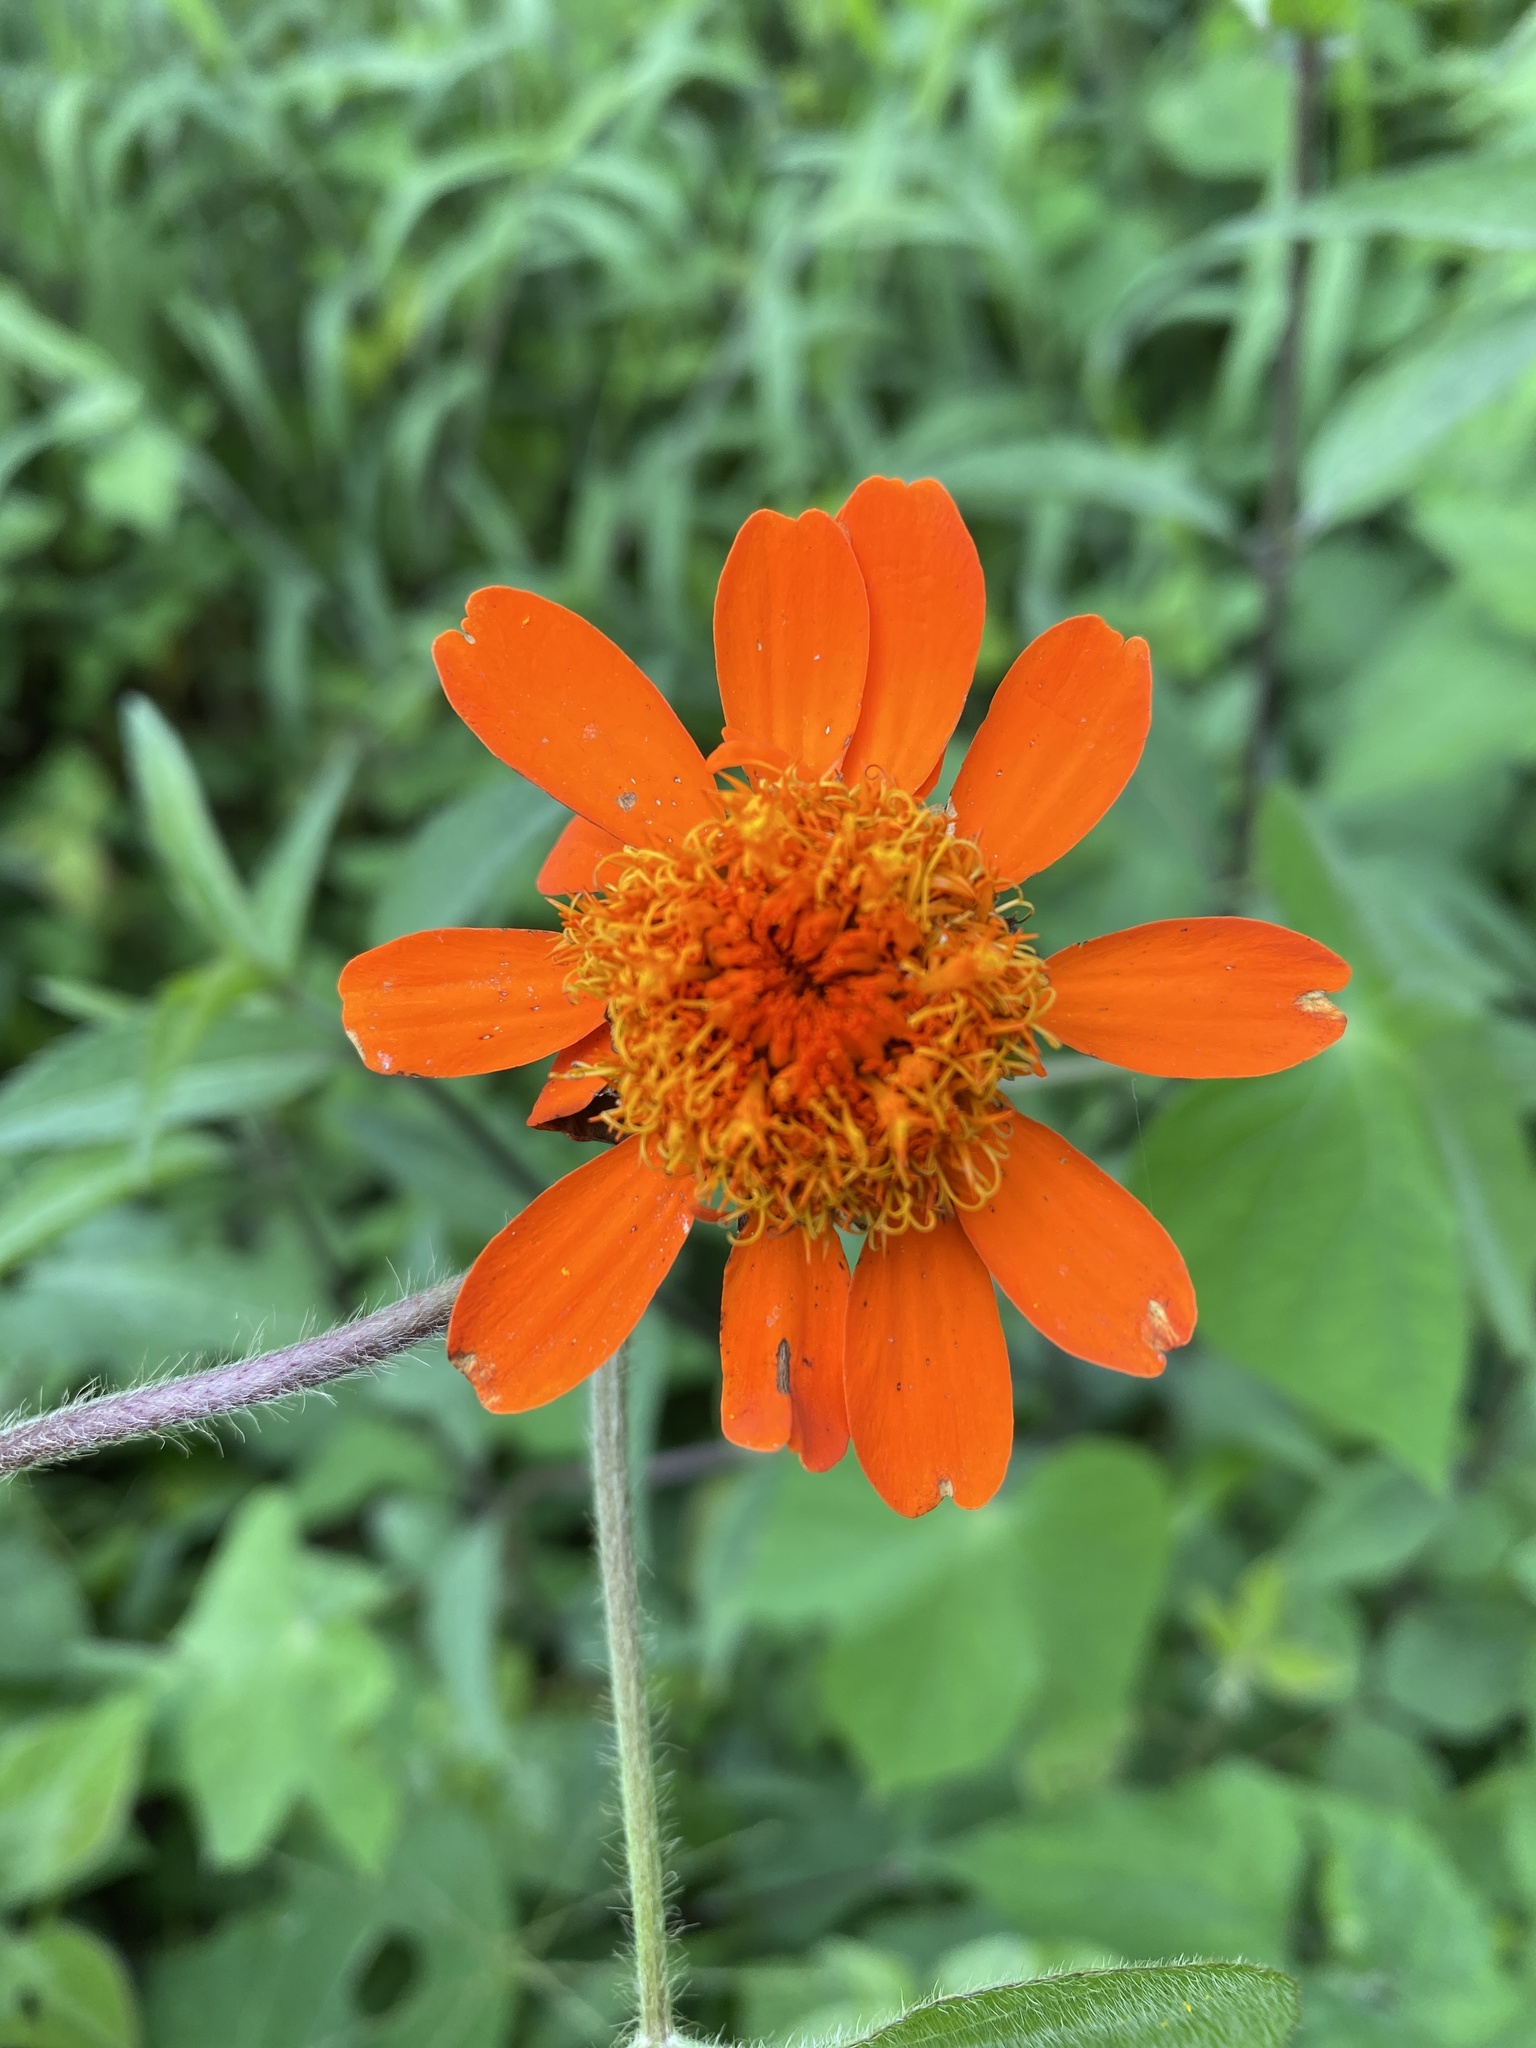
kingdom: Plantae
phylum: Tracheophyta
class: Magnoliopsida
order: Asterales
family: Asteraceae
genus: Comaclinium
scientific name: Comaclinium montanum
